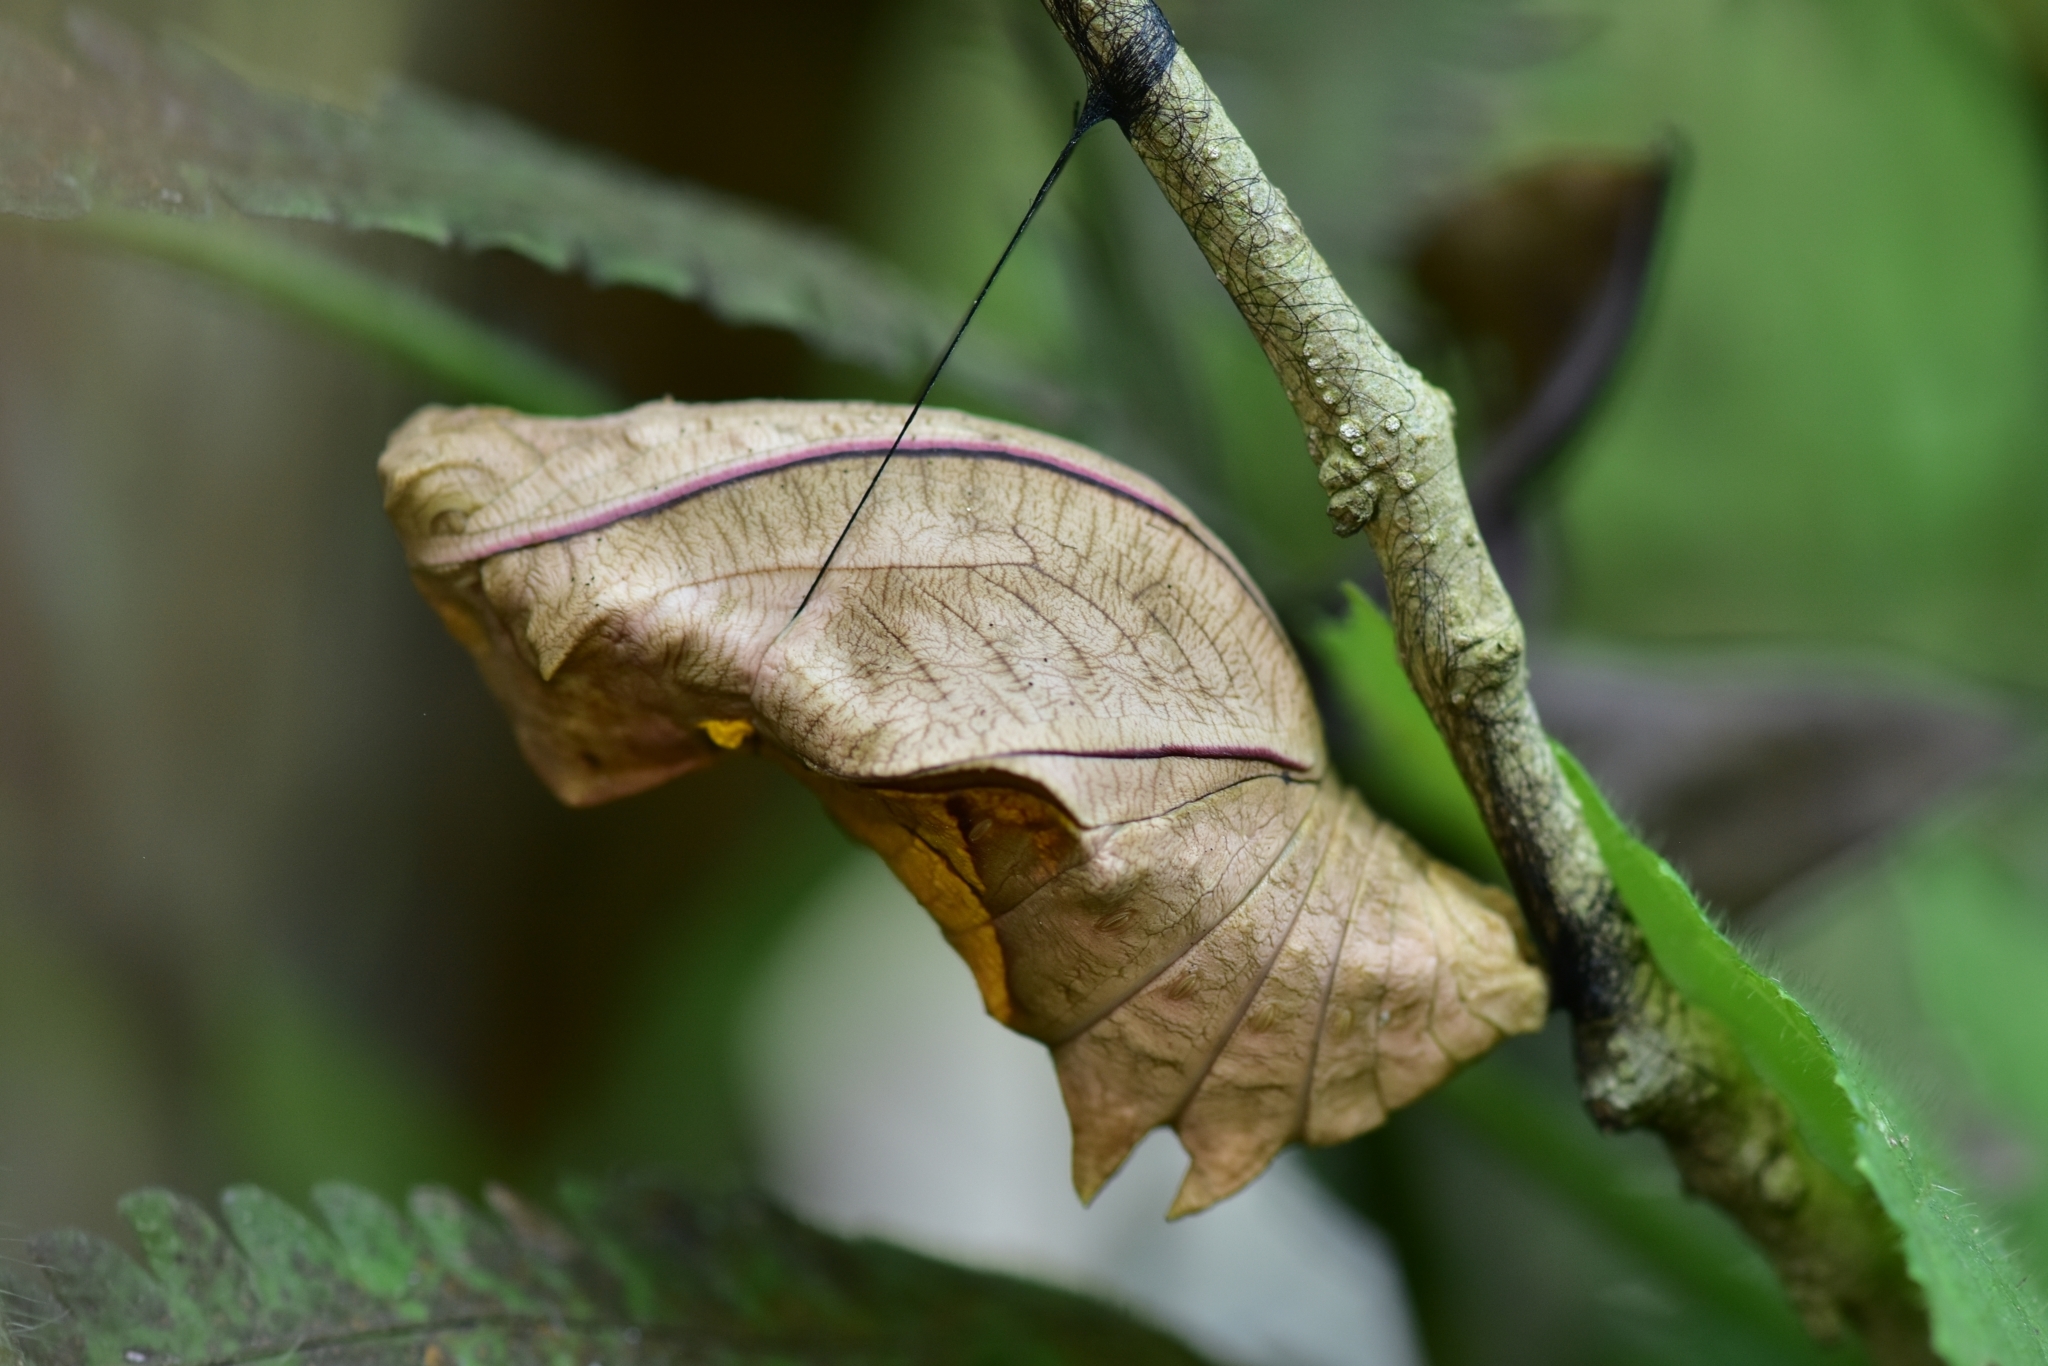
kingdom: Animalia
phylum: Arthropoda
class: Insecta
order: Lepidoptera
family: Papilionidae
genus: Troides
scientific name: Troides minos
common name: Malabar birdwing
